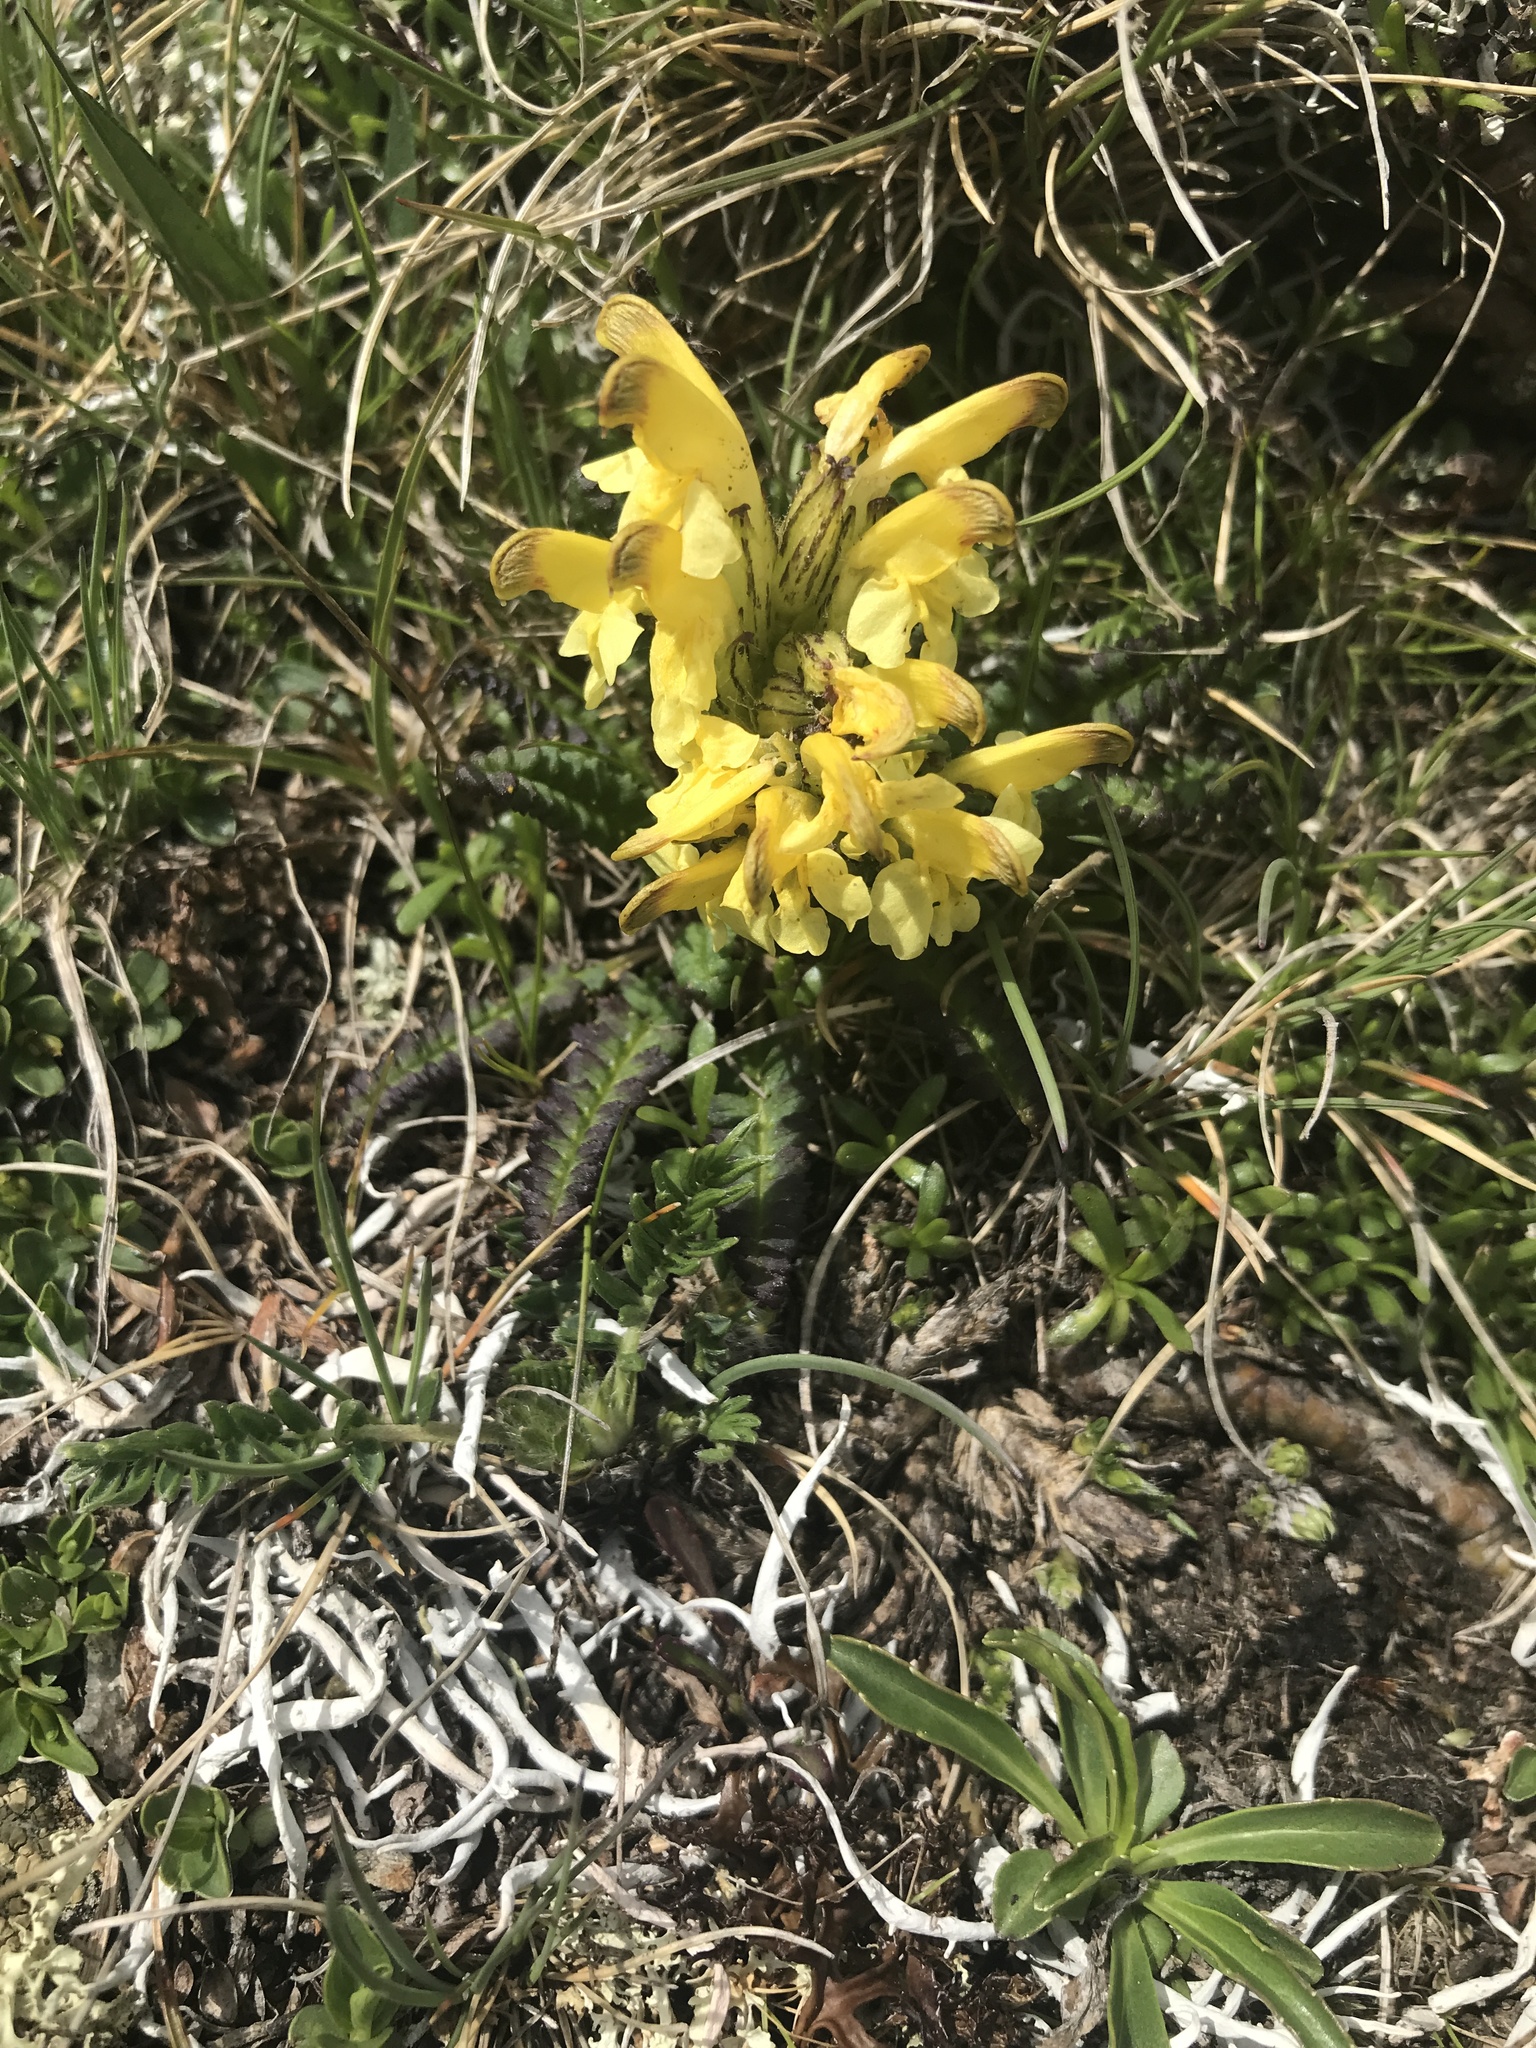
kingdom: Plantae
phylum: Tracheophyta
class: Magnoliopsida
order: Lamiales
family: Orobanchaceae
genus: Pedicularis
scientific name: Pedicularis oederi
